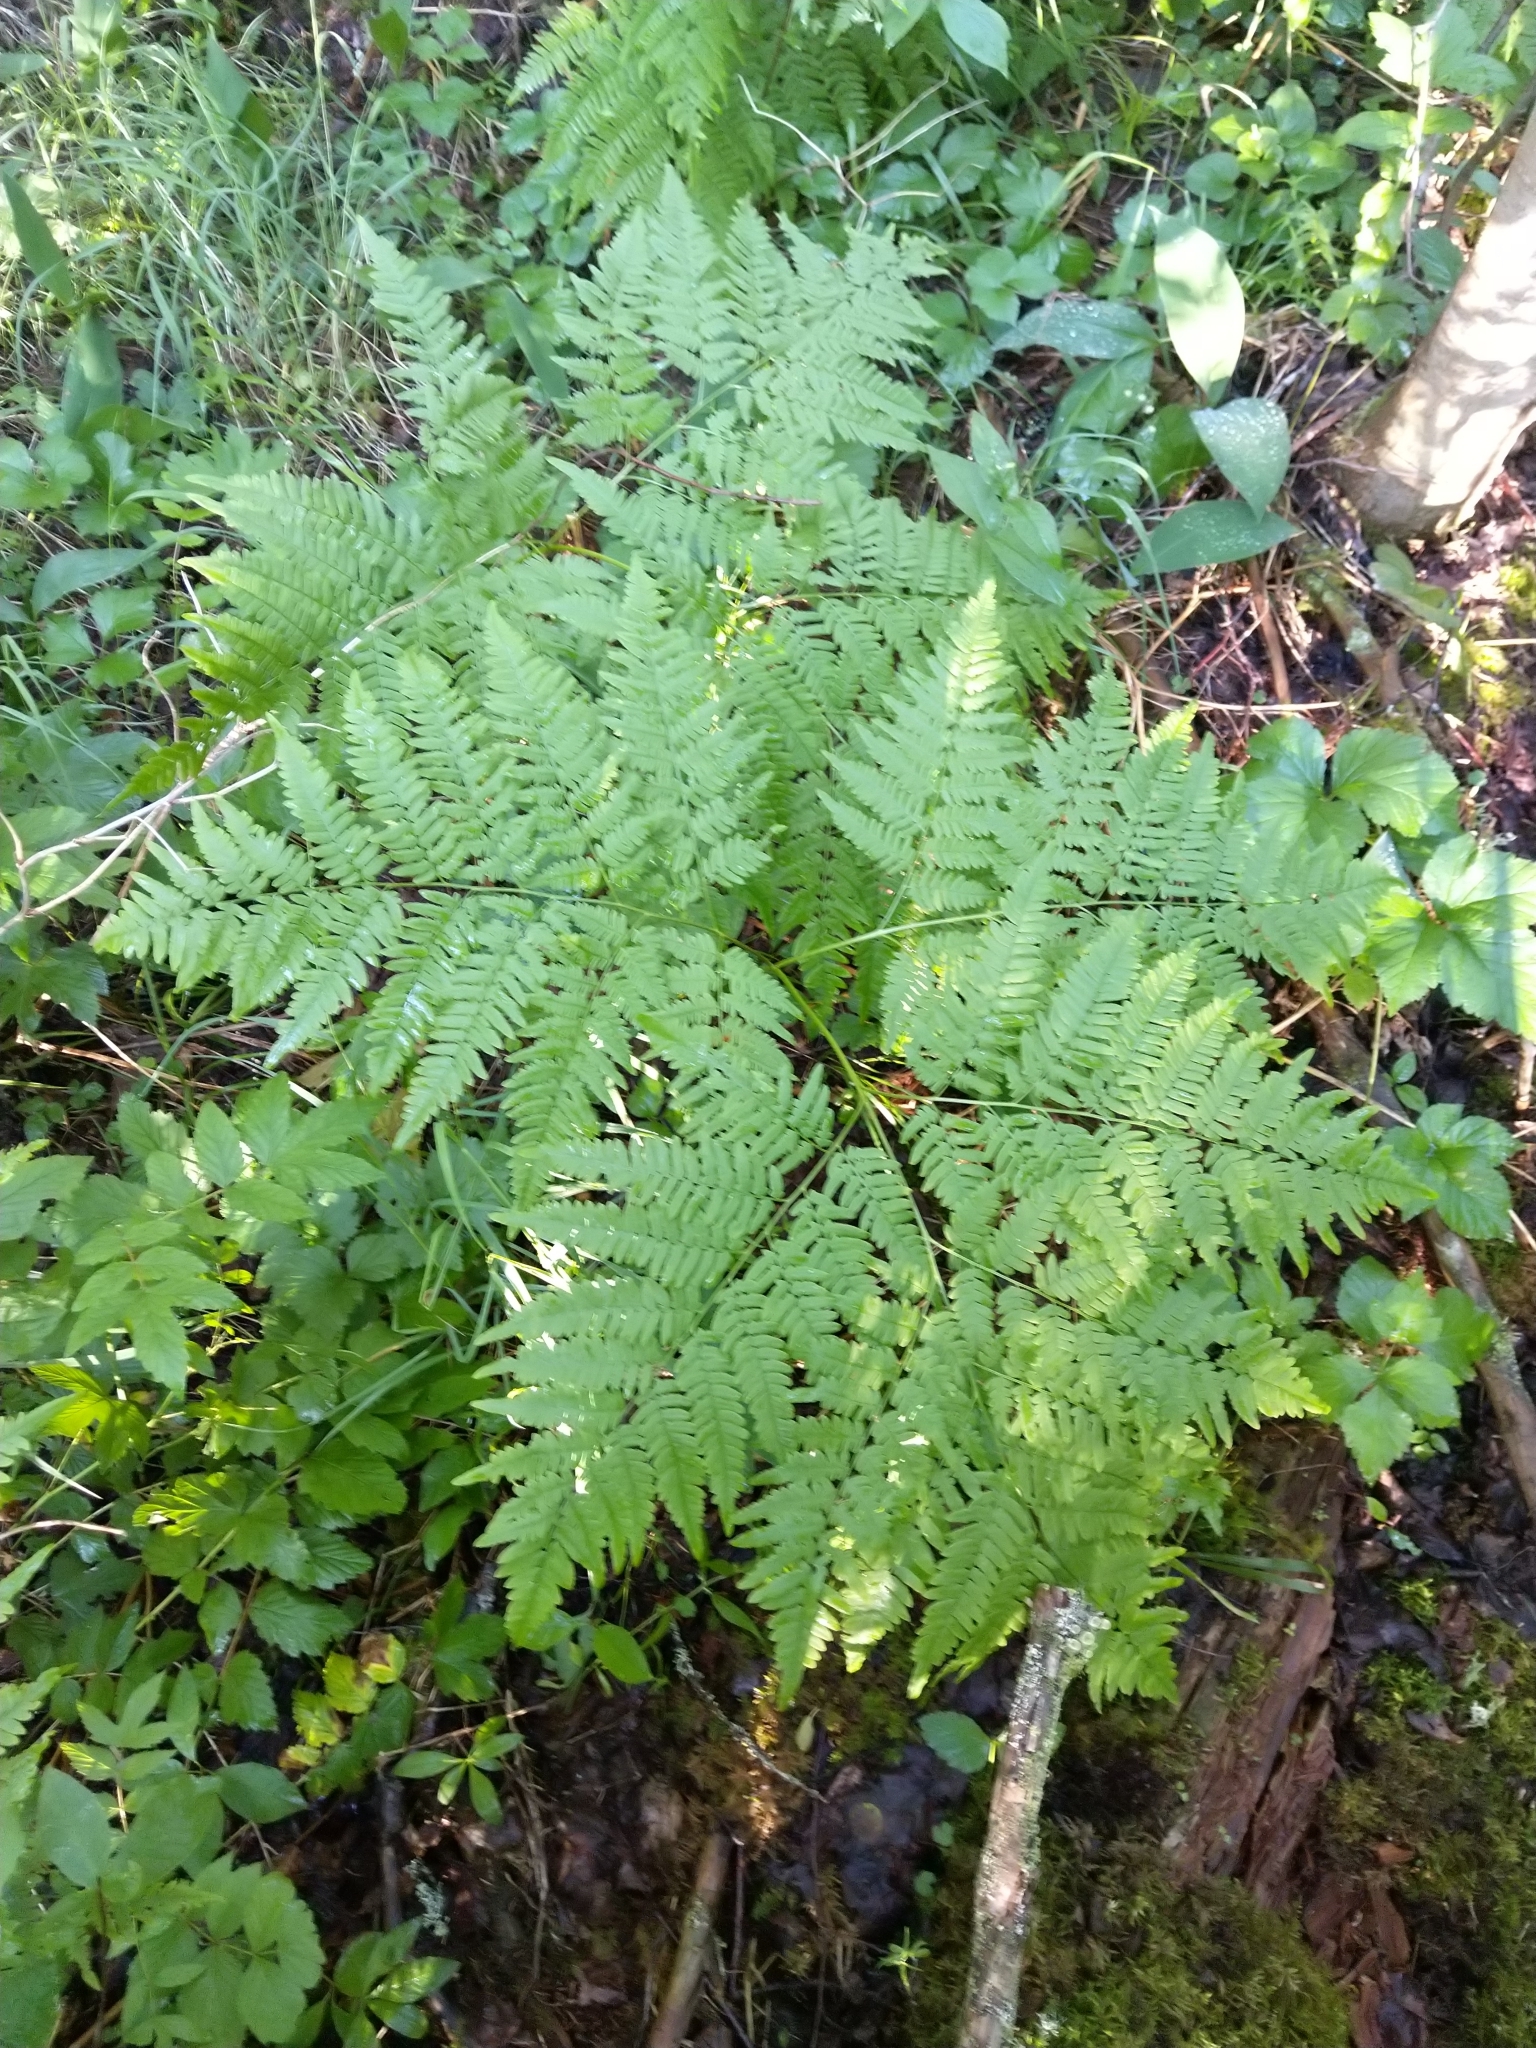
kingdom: Plantae
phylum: Tracheophyta
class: Polypodiopsida
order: Polypodiales
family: Dennstaedtiaceae
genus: Pteridium
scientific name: Pteridium aquilinum
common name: Bracken
